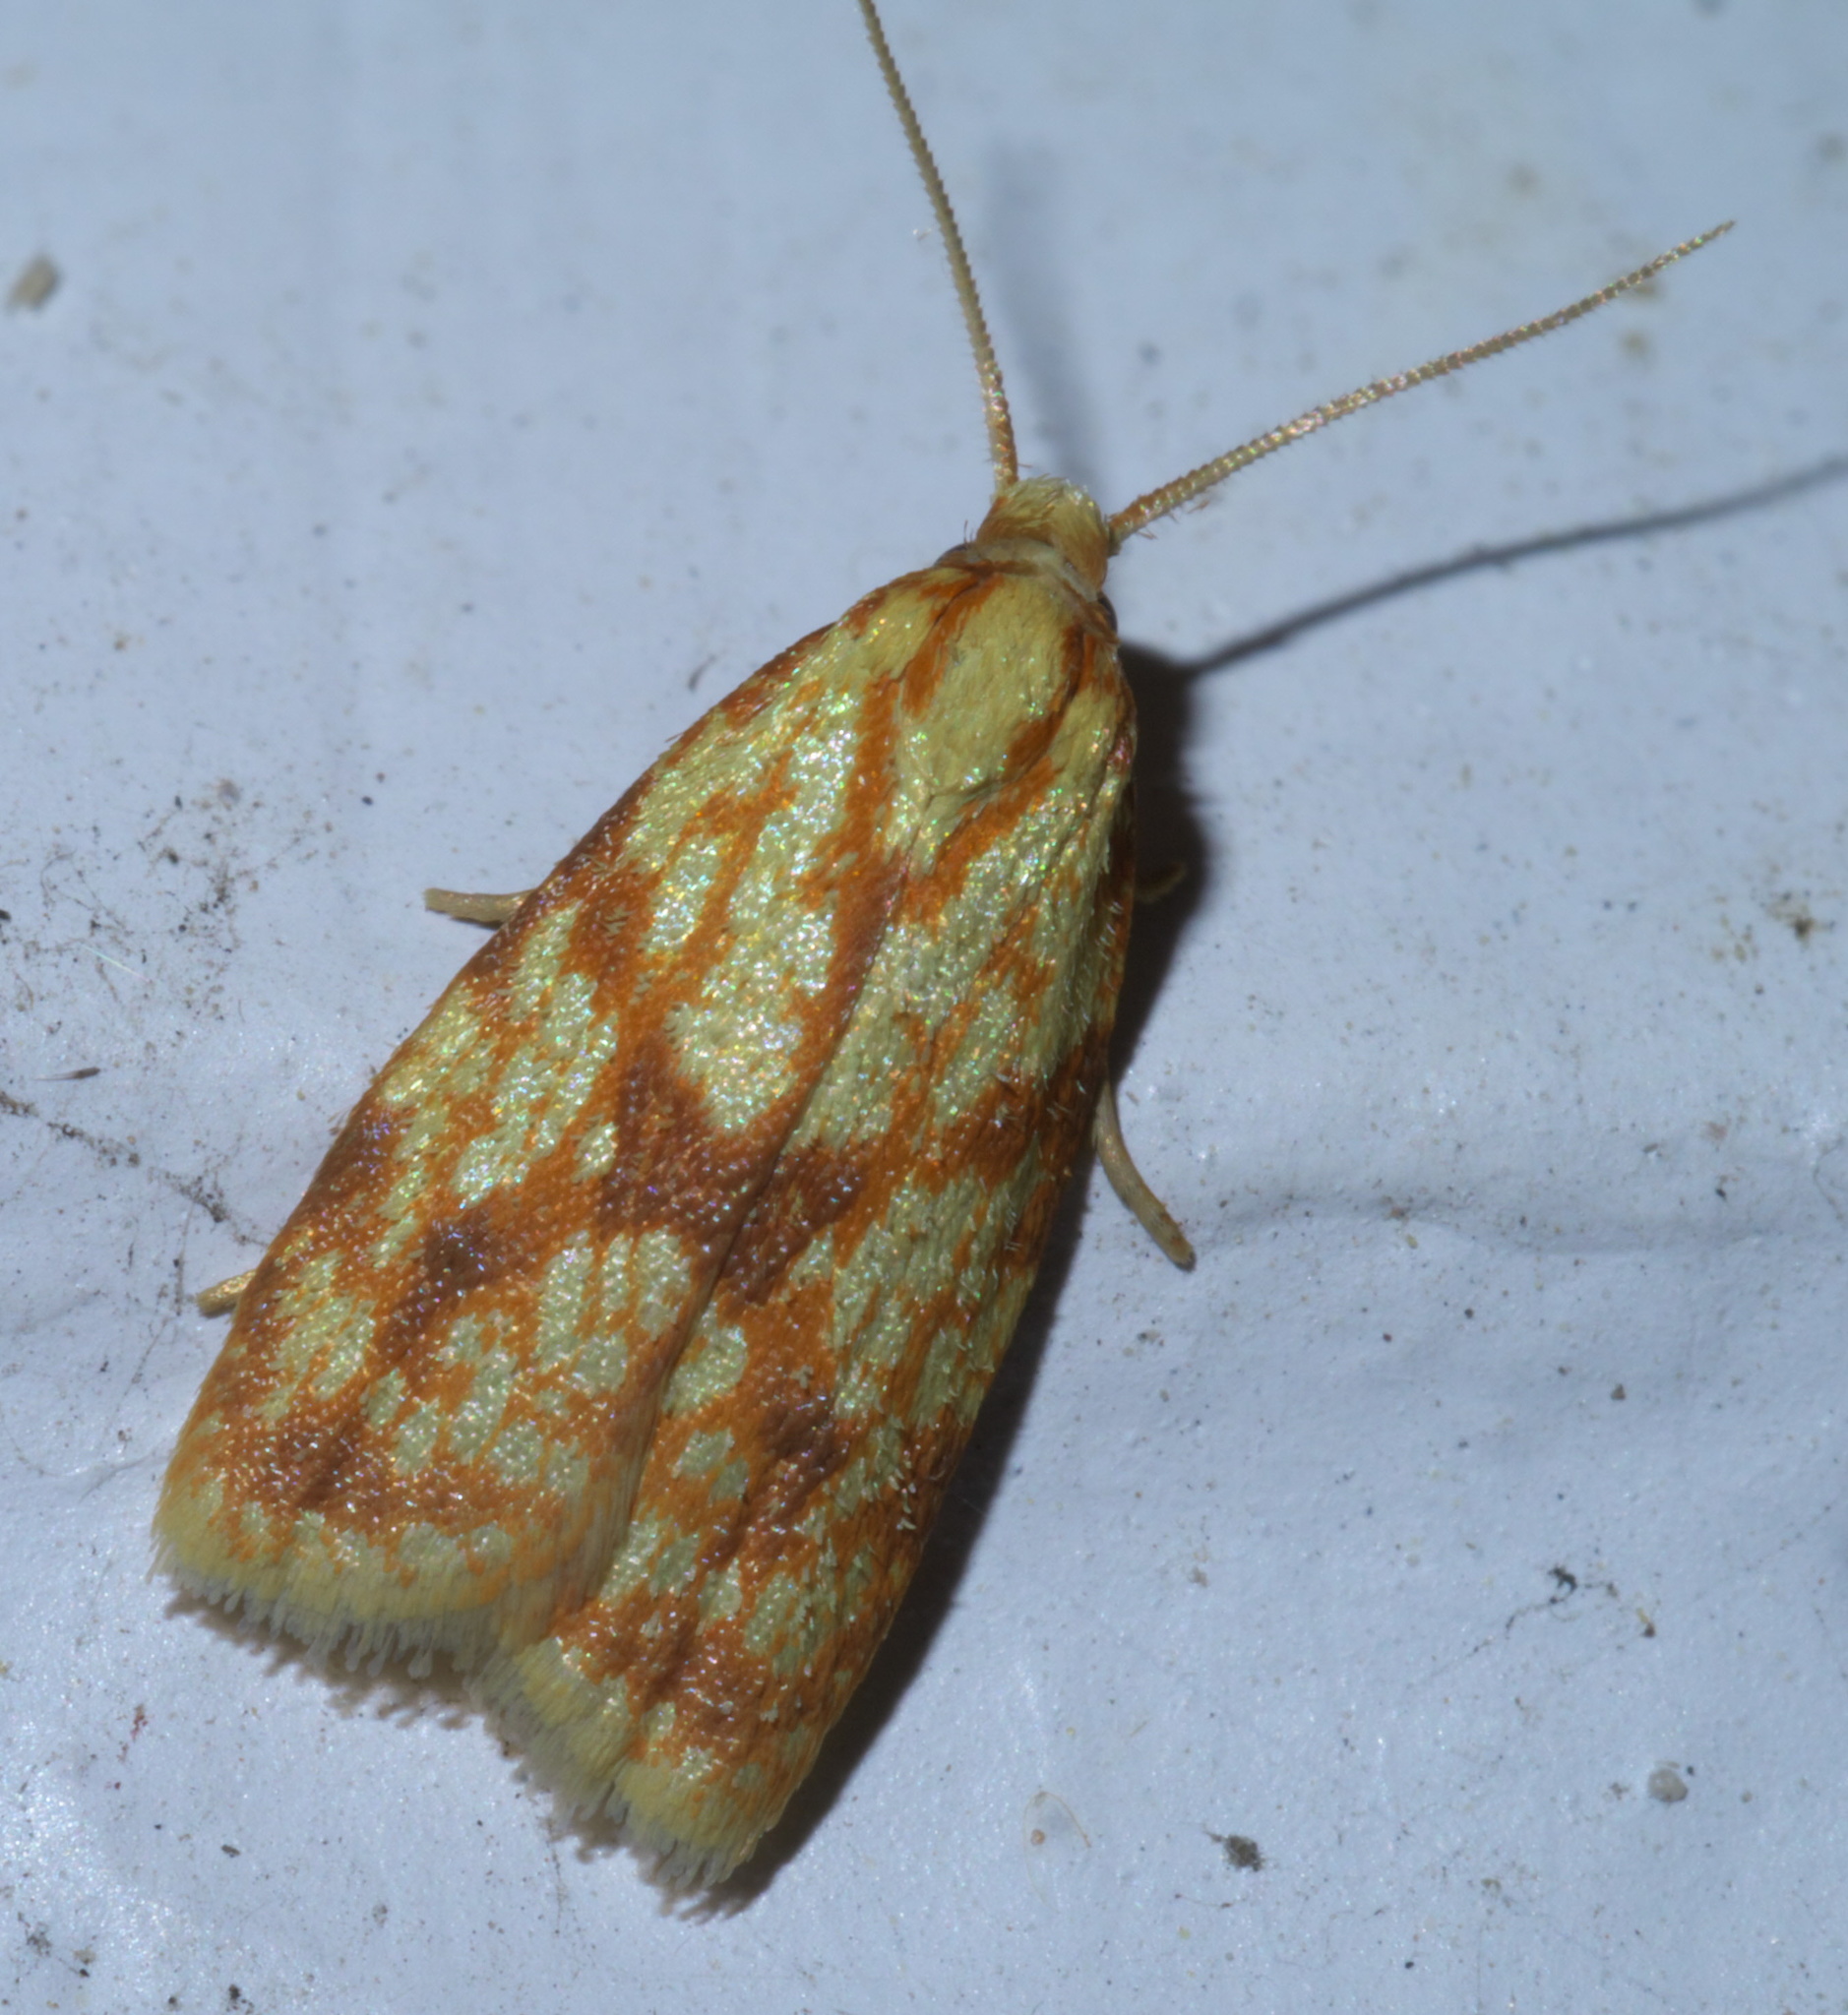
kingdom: Animalia
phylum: Arthropoda
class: Insecta
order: Lepidoptera
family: Tortricidae
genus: Sparganothis
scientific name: Sparganothis sulfureana
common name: Sparganothis fruitworm moth
